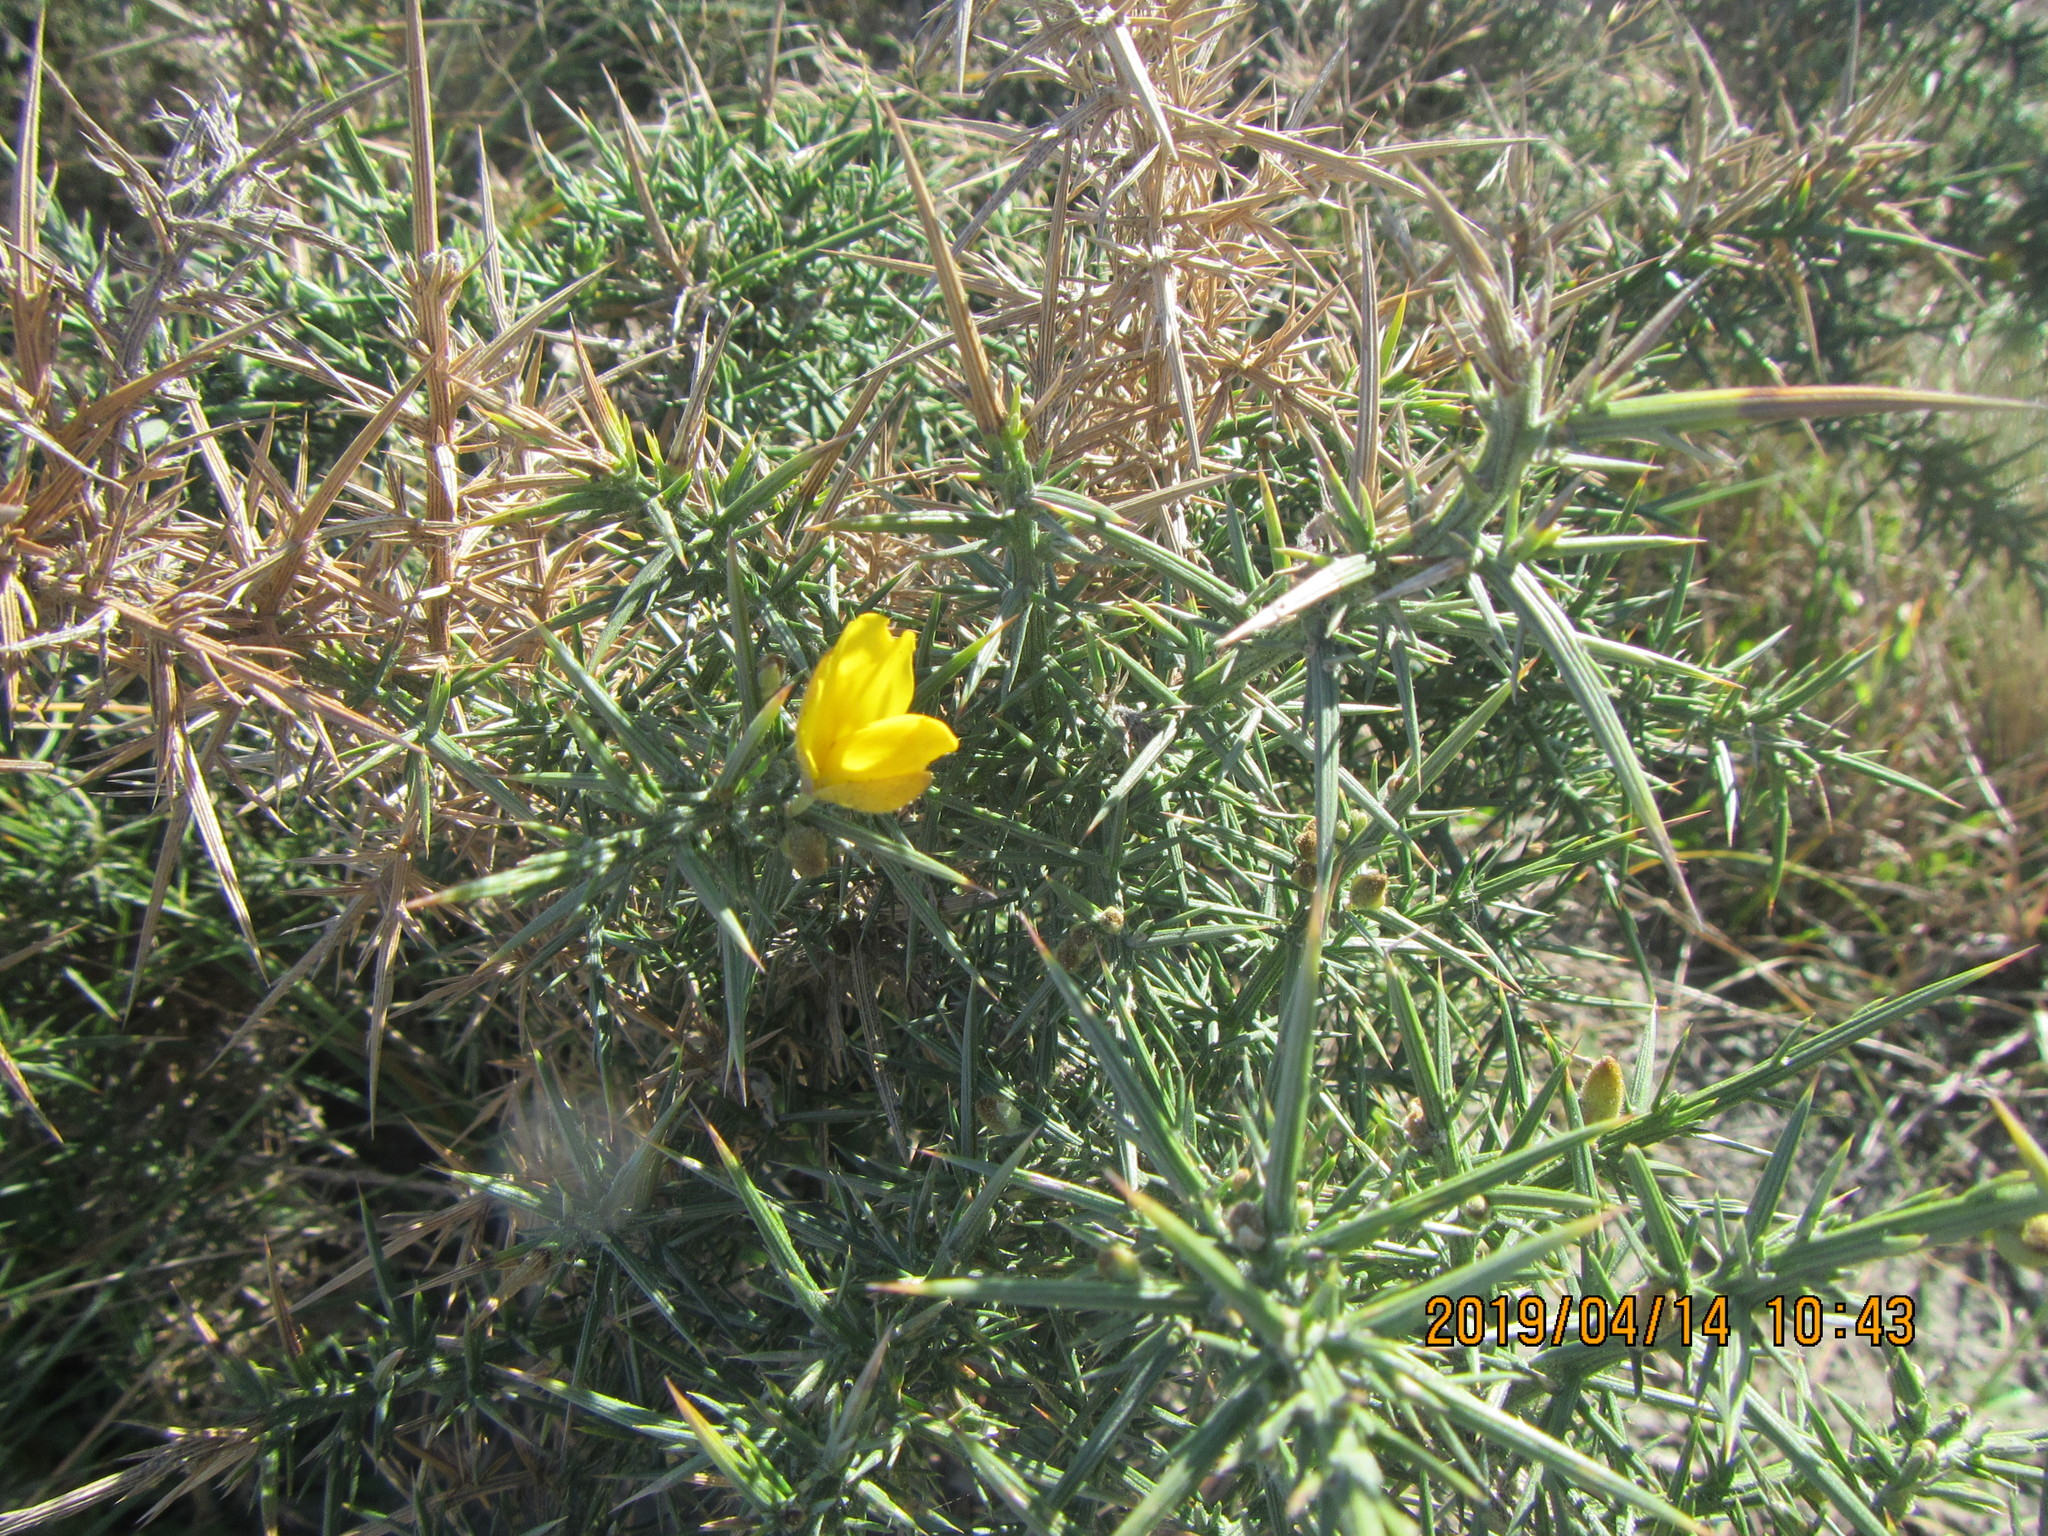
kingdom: Plantae
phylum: Tracheophyta
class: Magnoliopsida
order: Fabales
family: Fabaceae
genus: Ulex
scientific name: Ulex europaeus
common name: Common gorse
